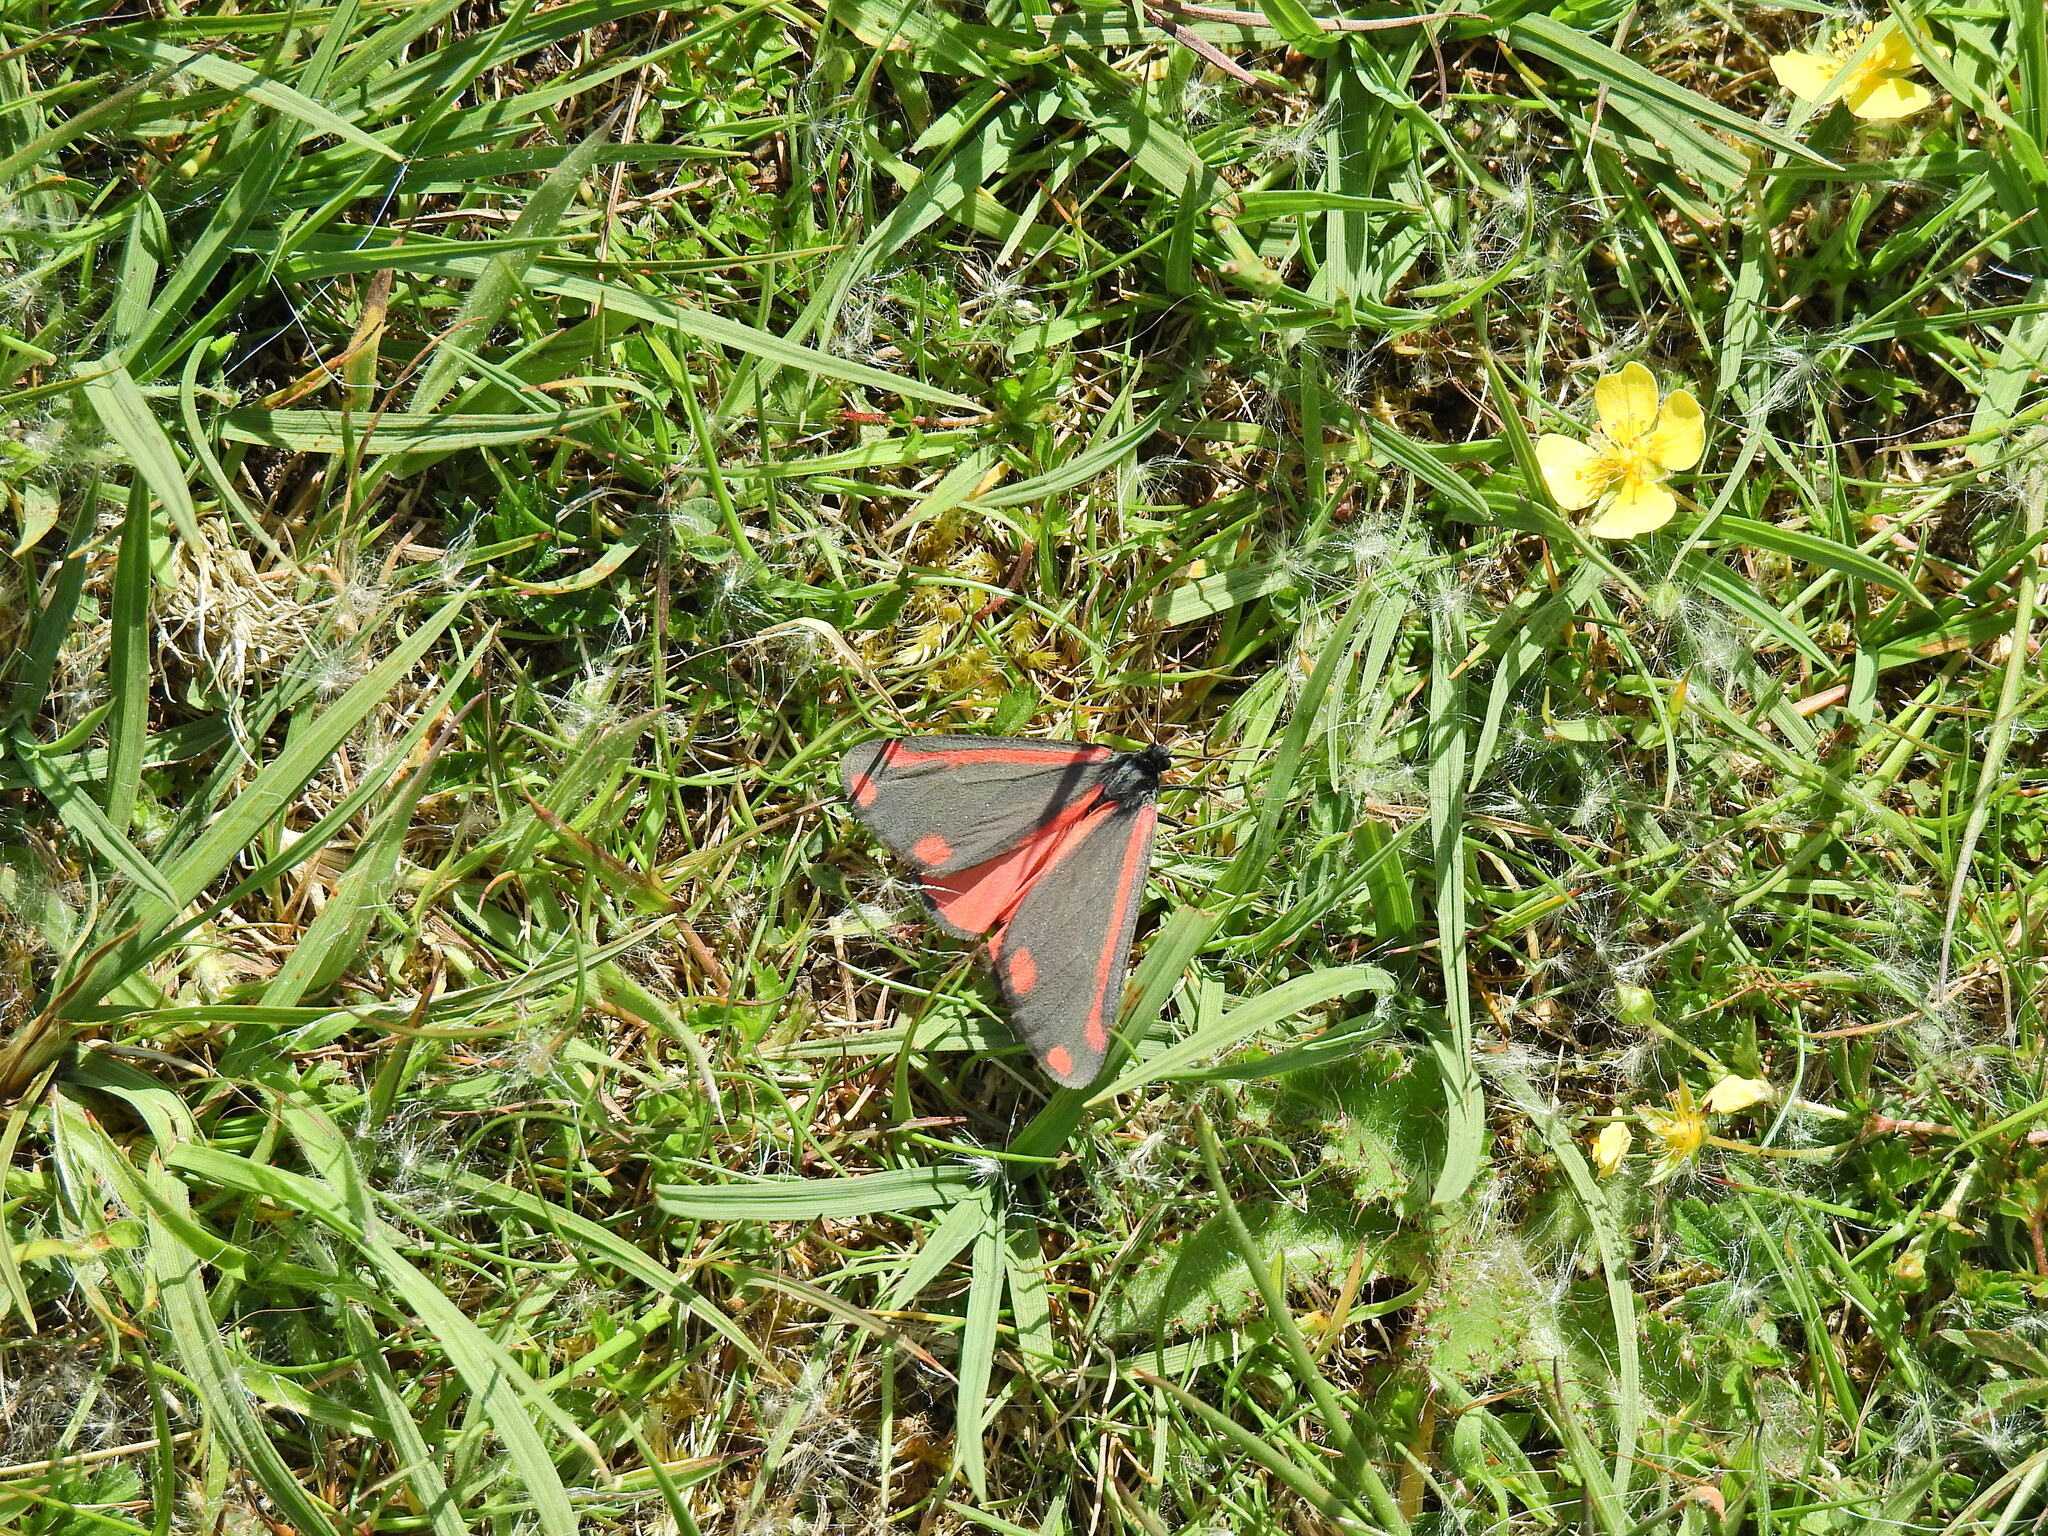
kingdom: Animalia
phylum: Arthropoda
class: Insecta
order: Lepidoptera
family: Erebidae
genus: Tyria
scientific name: Tyria jacobaeae
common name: Cinnabar
